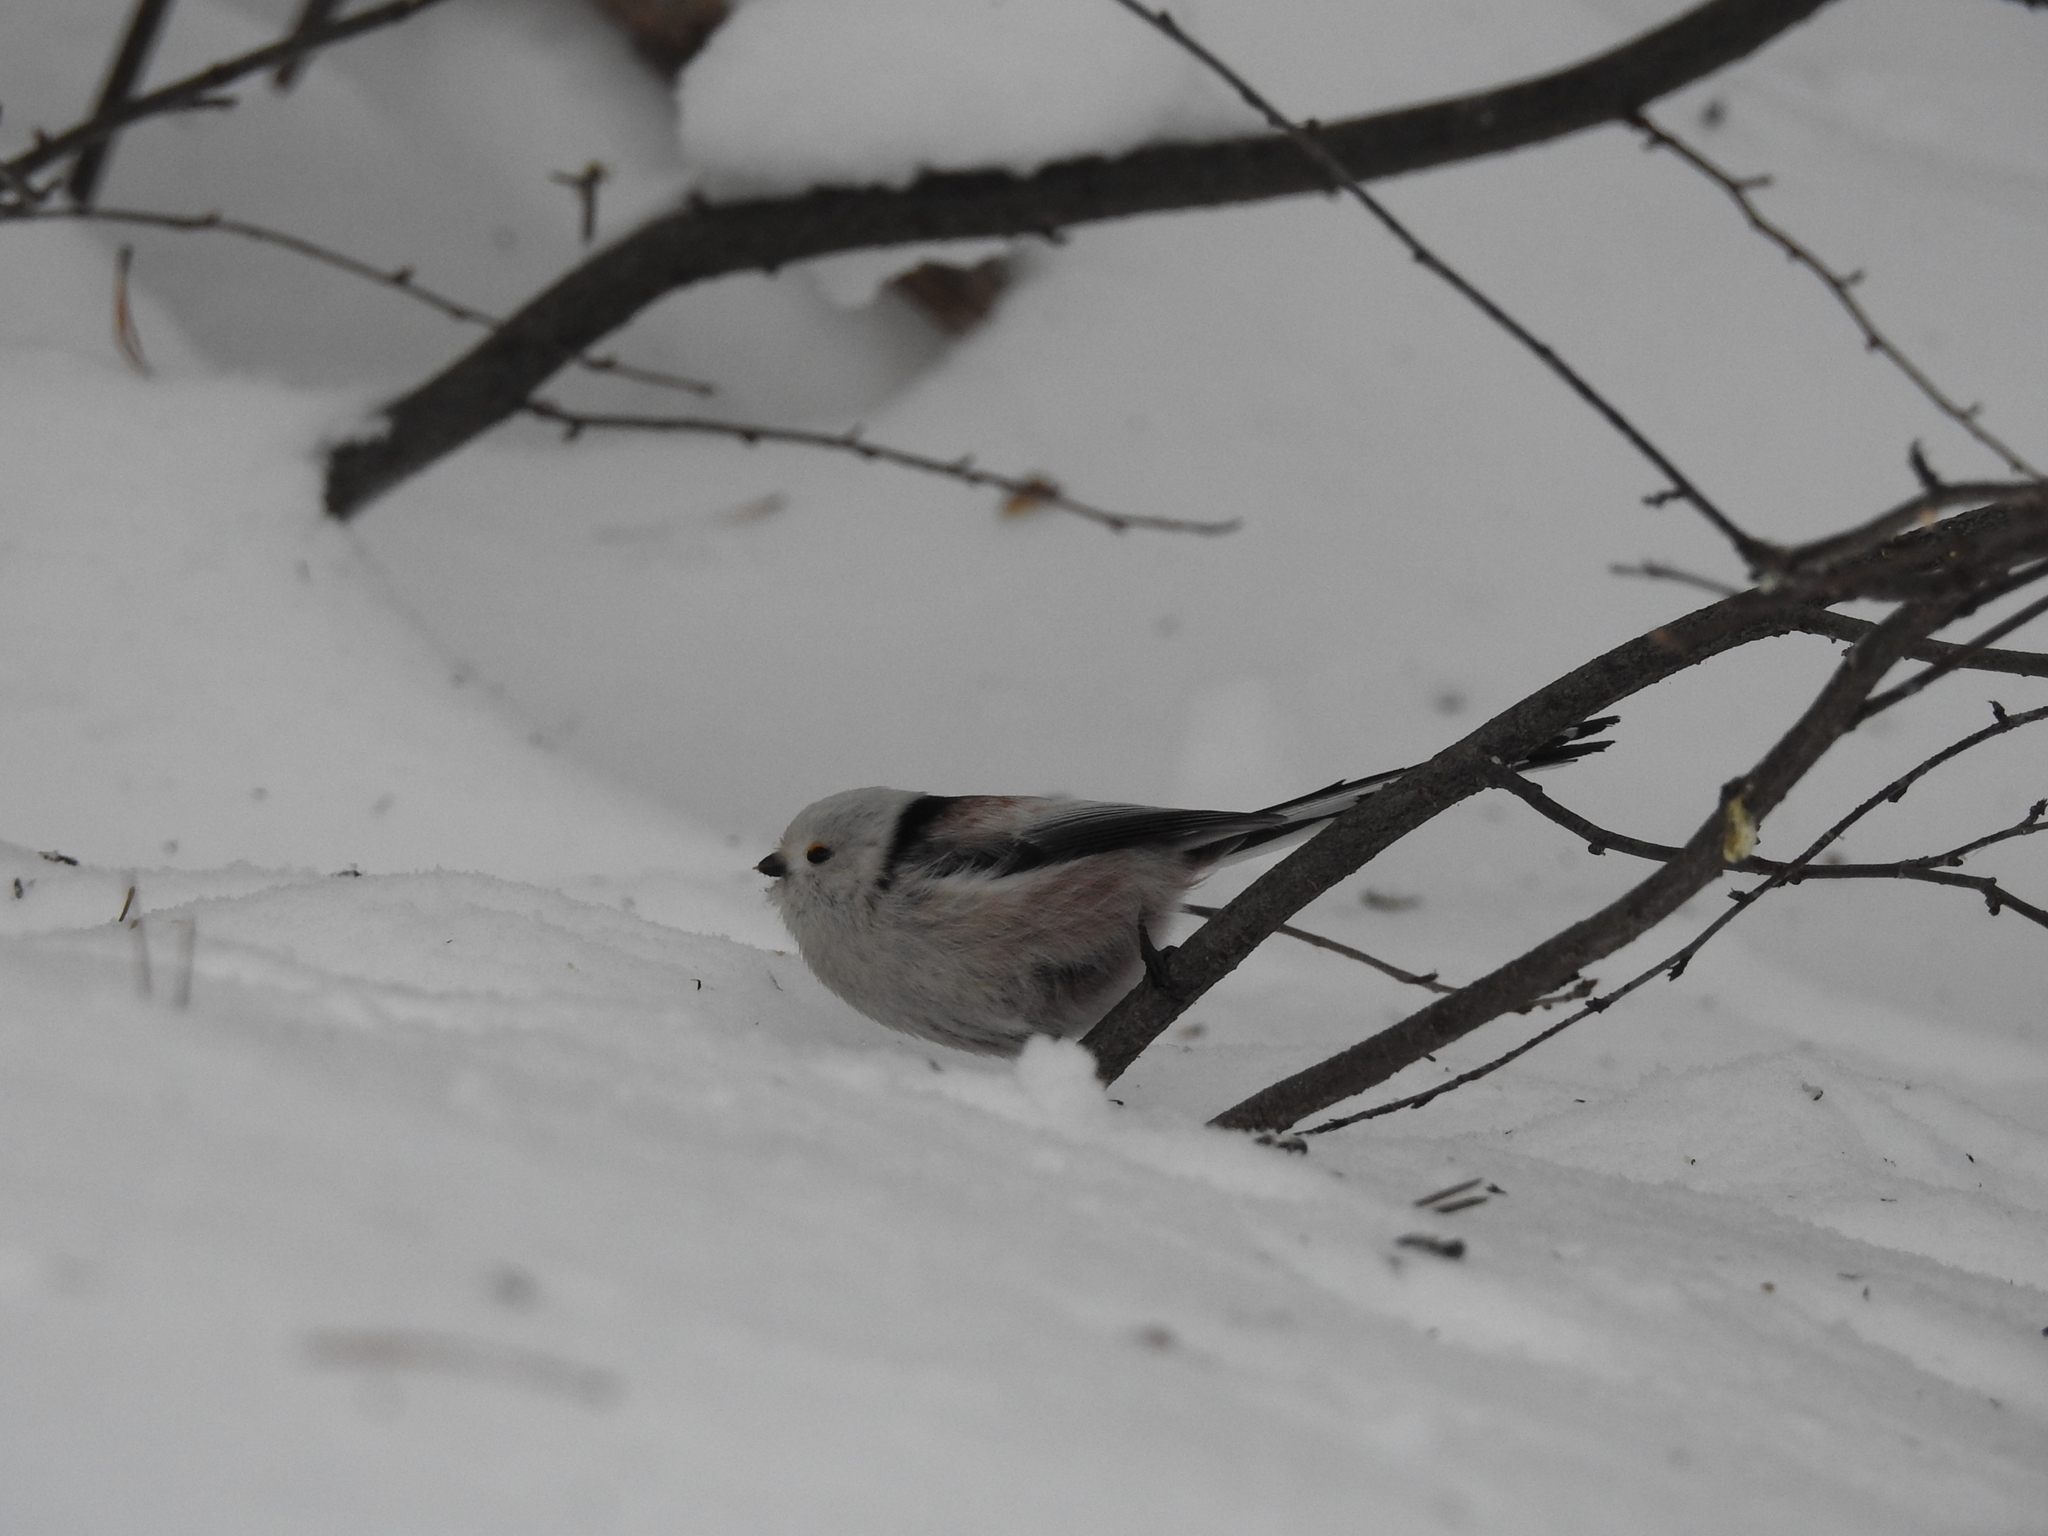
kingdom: Animalia
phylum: Chordata
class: Aves
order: Passeriformes
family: Aegithalidae
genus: Aegithalos
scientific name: Aegithalos caudatus
